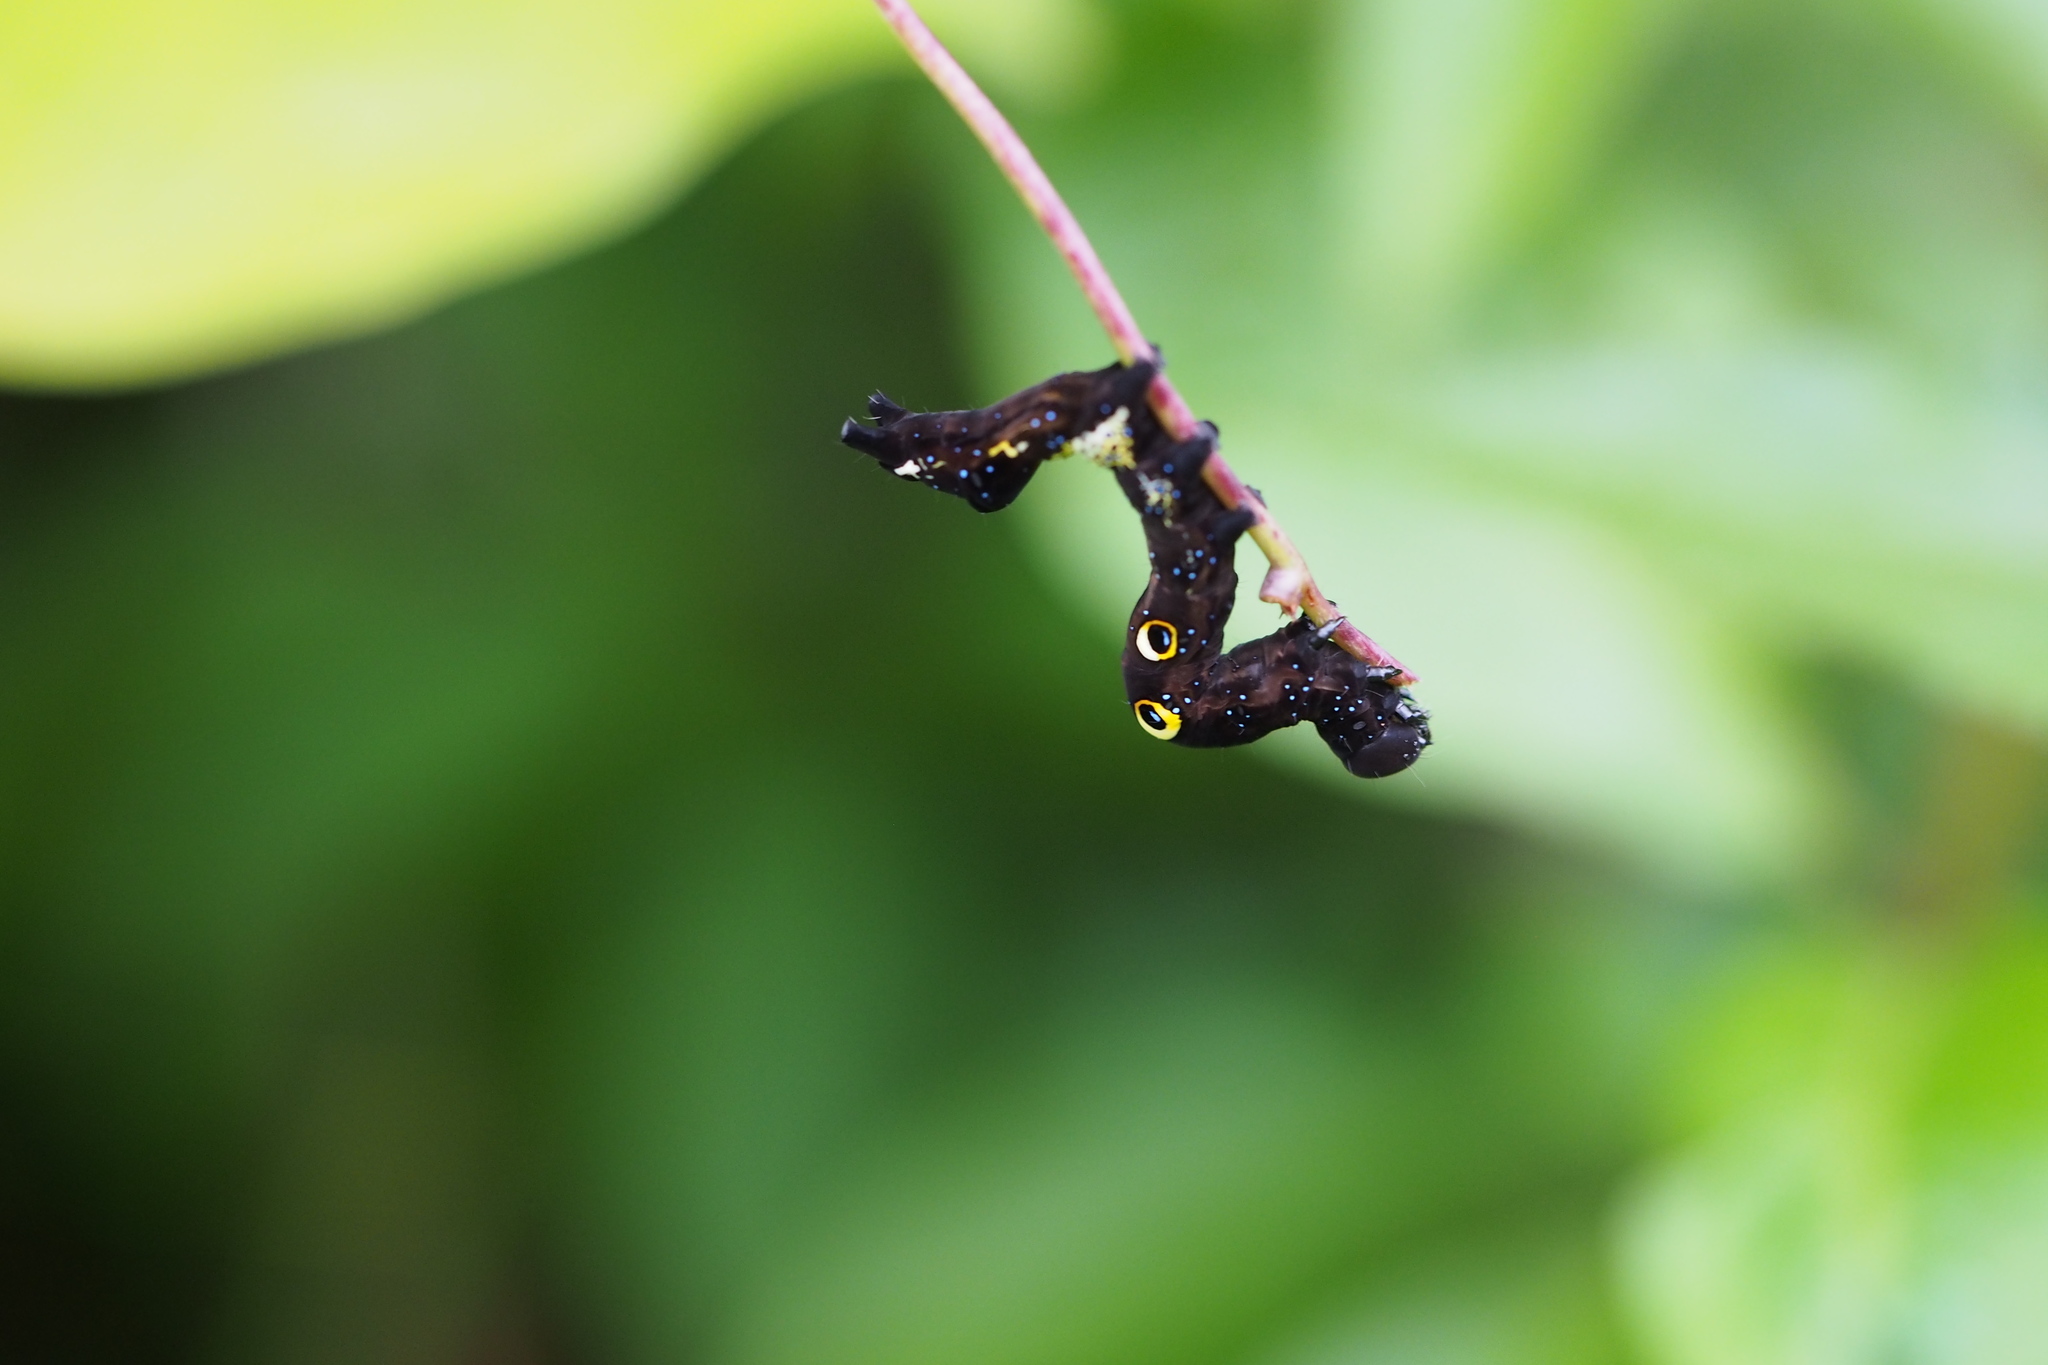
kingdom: Animalia
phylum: Arthropoda
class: Insecta
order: Lepidoptera
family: Erebidae
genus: Eudocima
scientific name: Eudocima tyrannus
